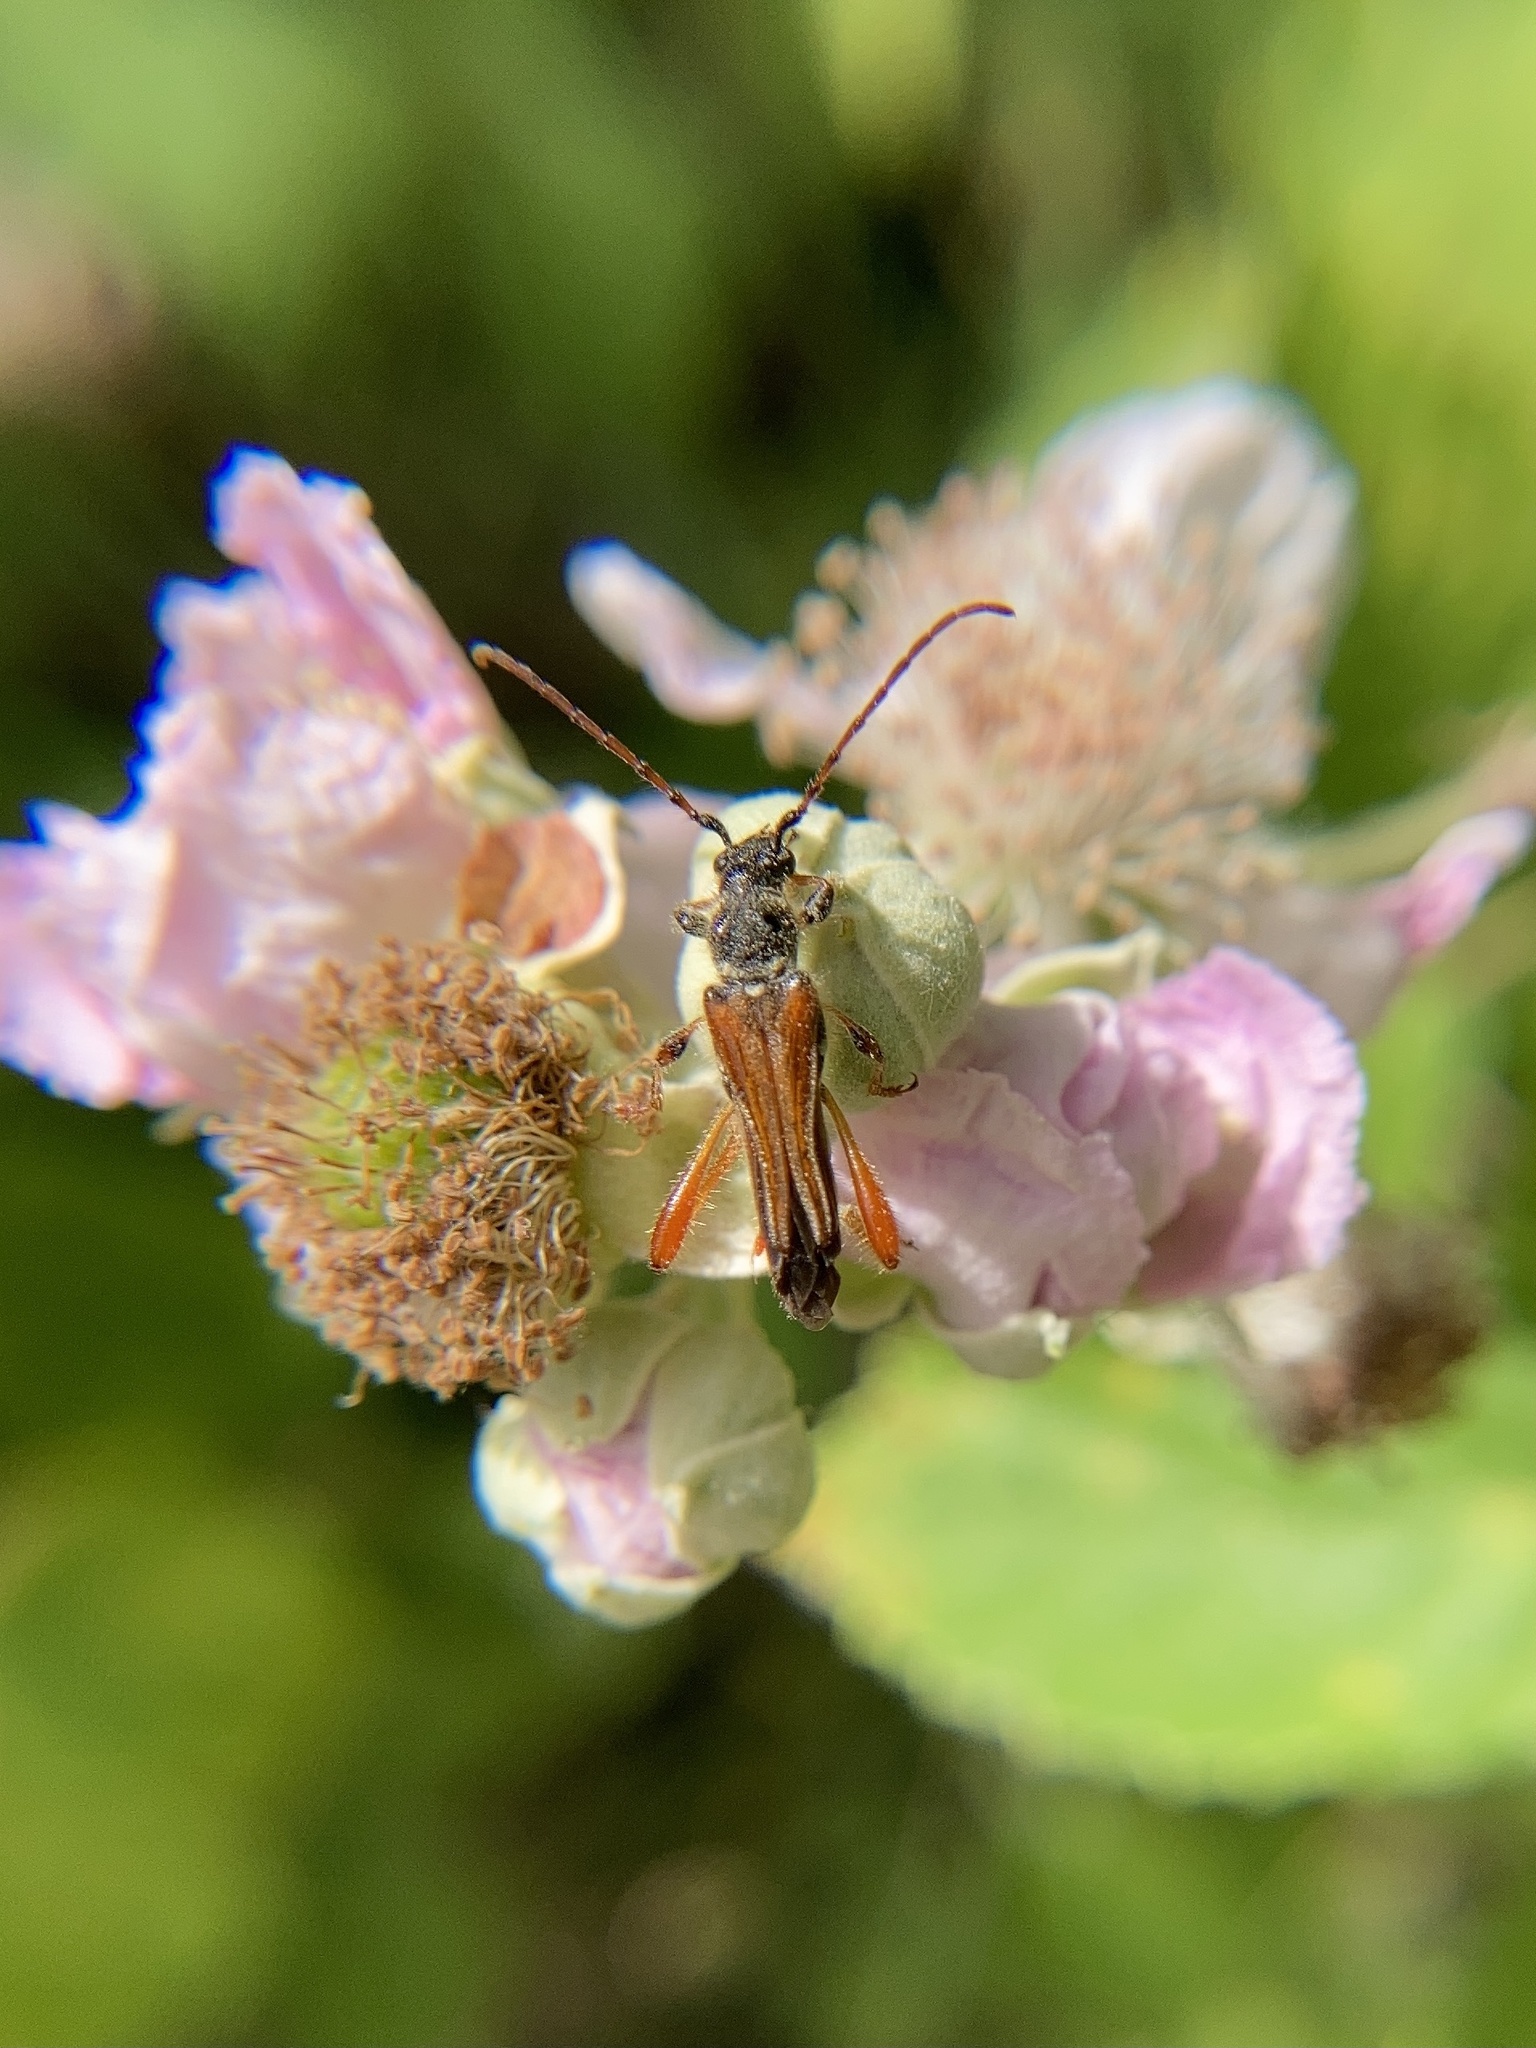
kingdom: Animalia
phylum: Arthropoda
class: Insecta
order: Coleoptera
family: Cerambycidae
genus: Stenopterus
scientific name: Stenopterus rufus
